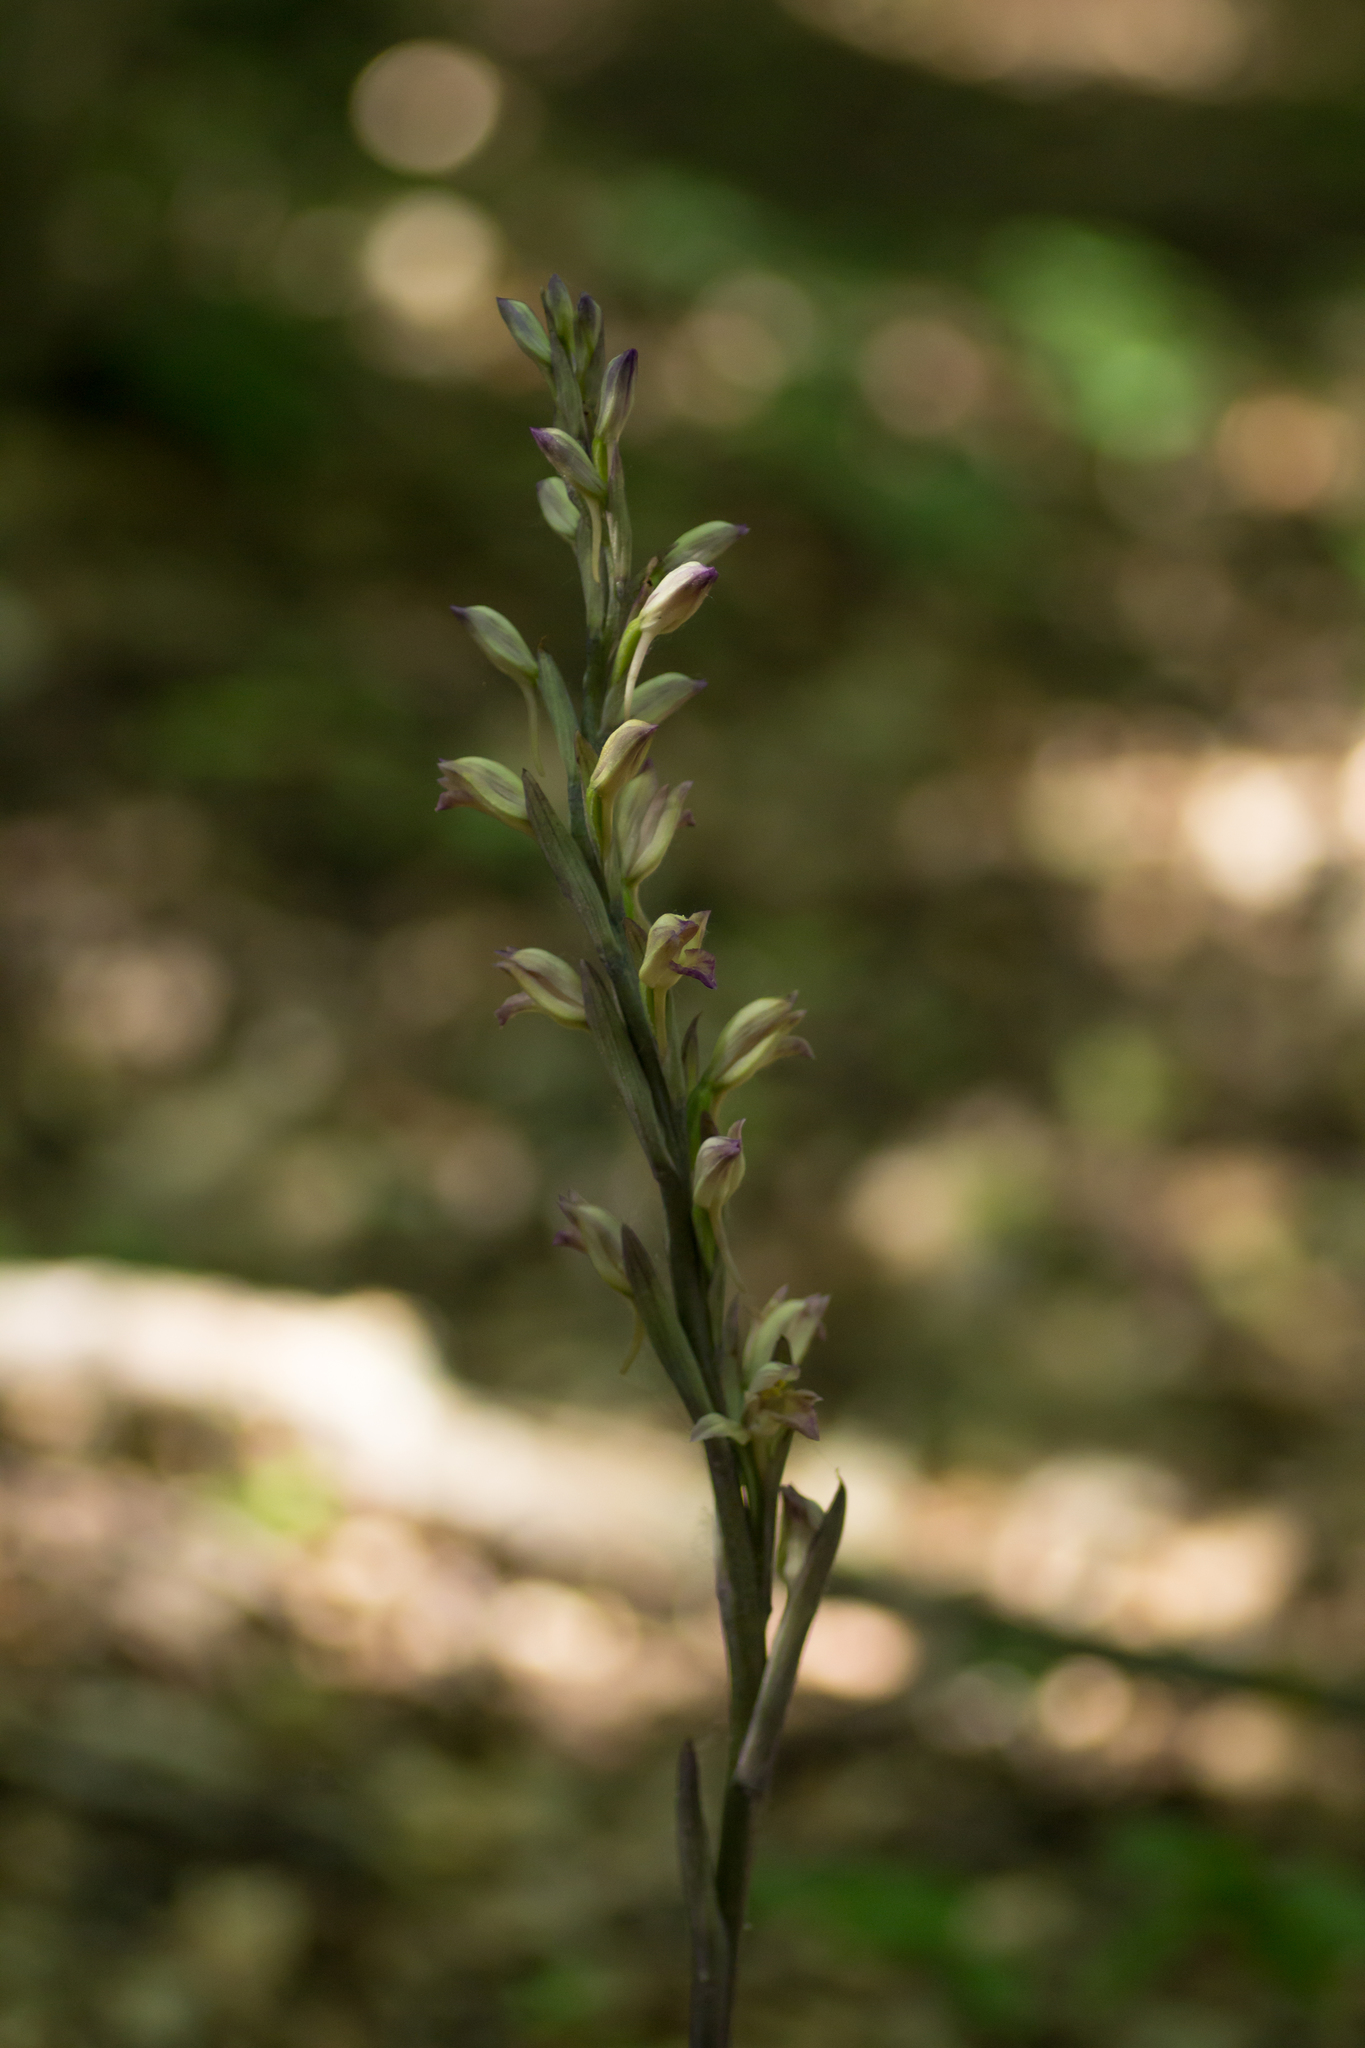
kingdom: Plantae
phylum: Tracheophyta
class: Liliopsida
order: Asparagales
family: Orchidaceae
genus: Limodorum
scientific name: Limodorum abortivum
